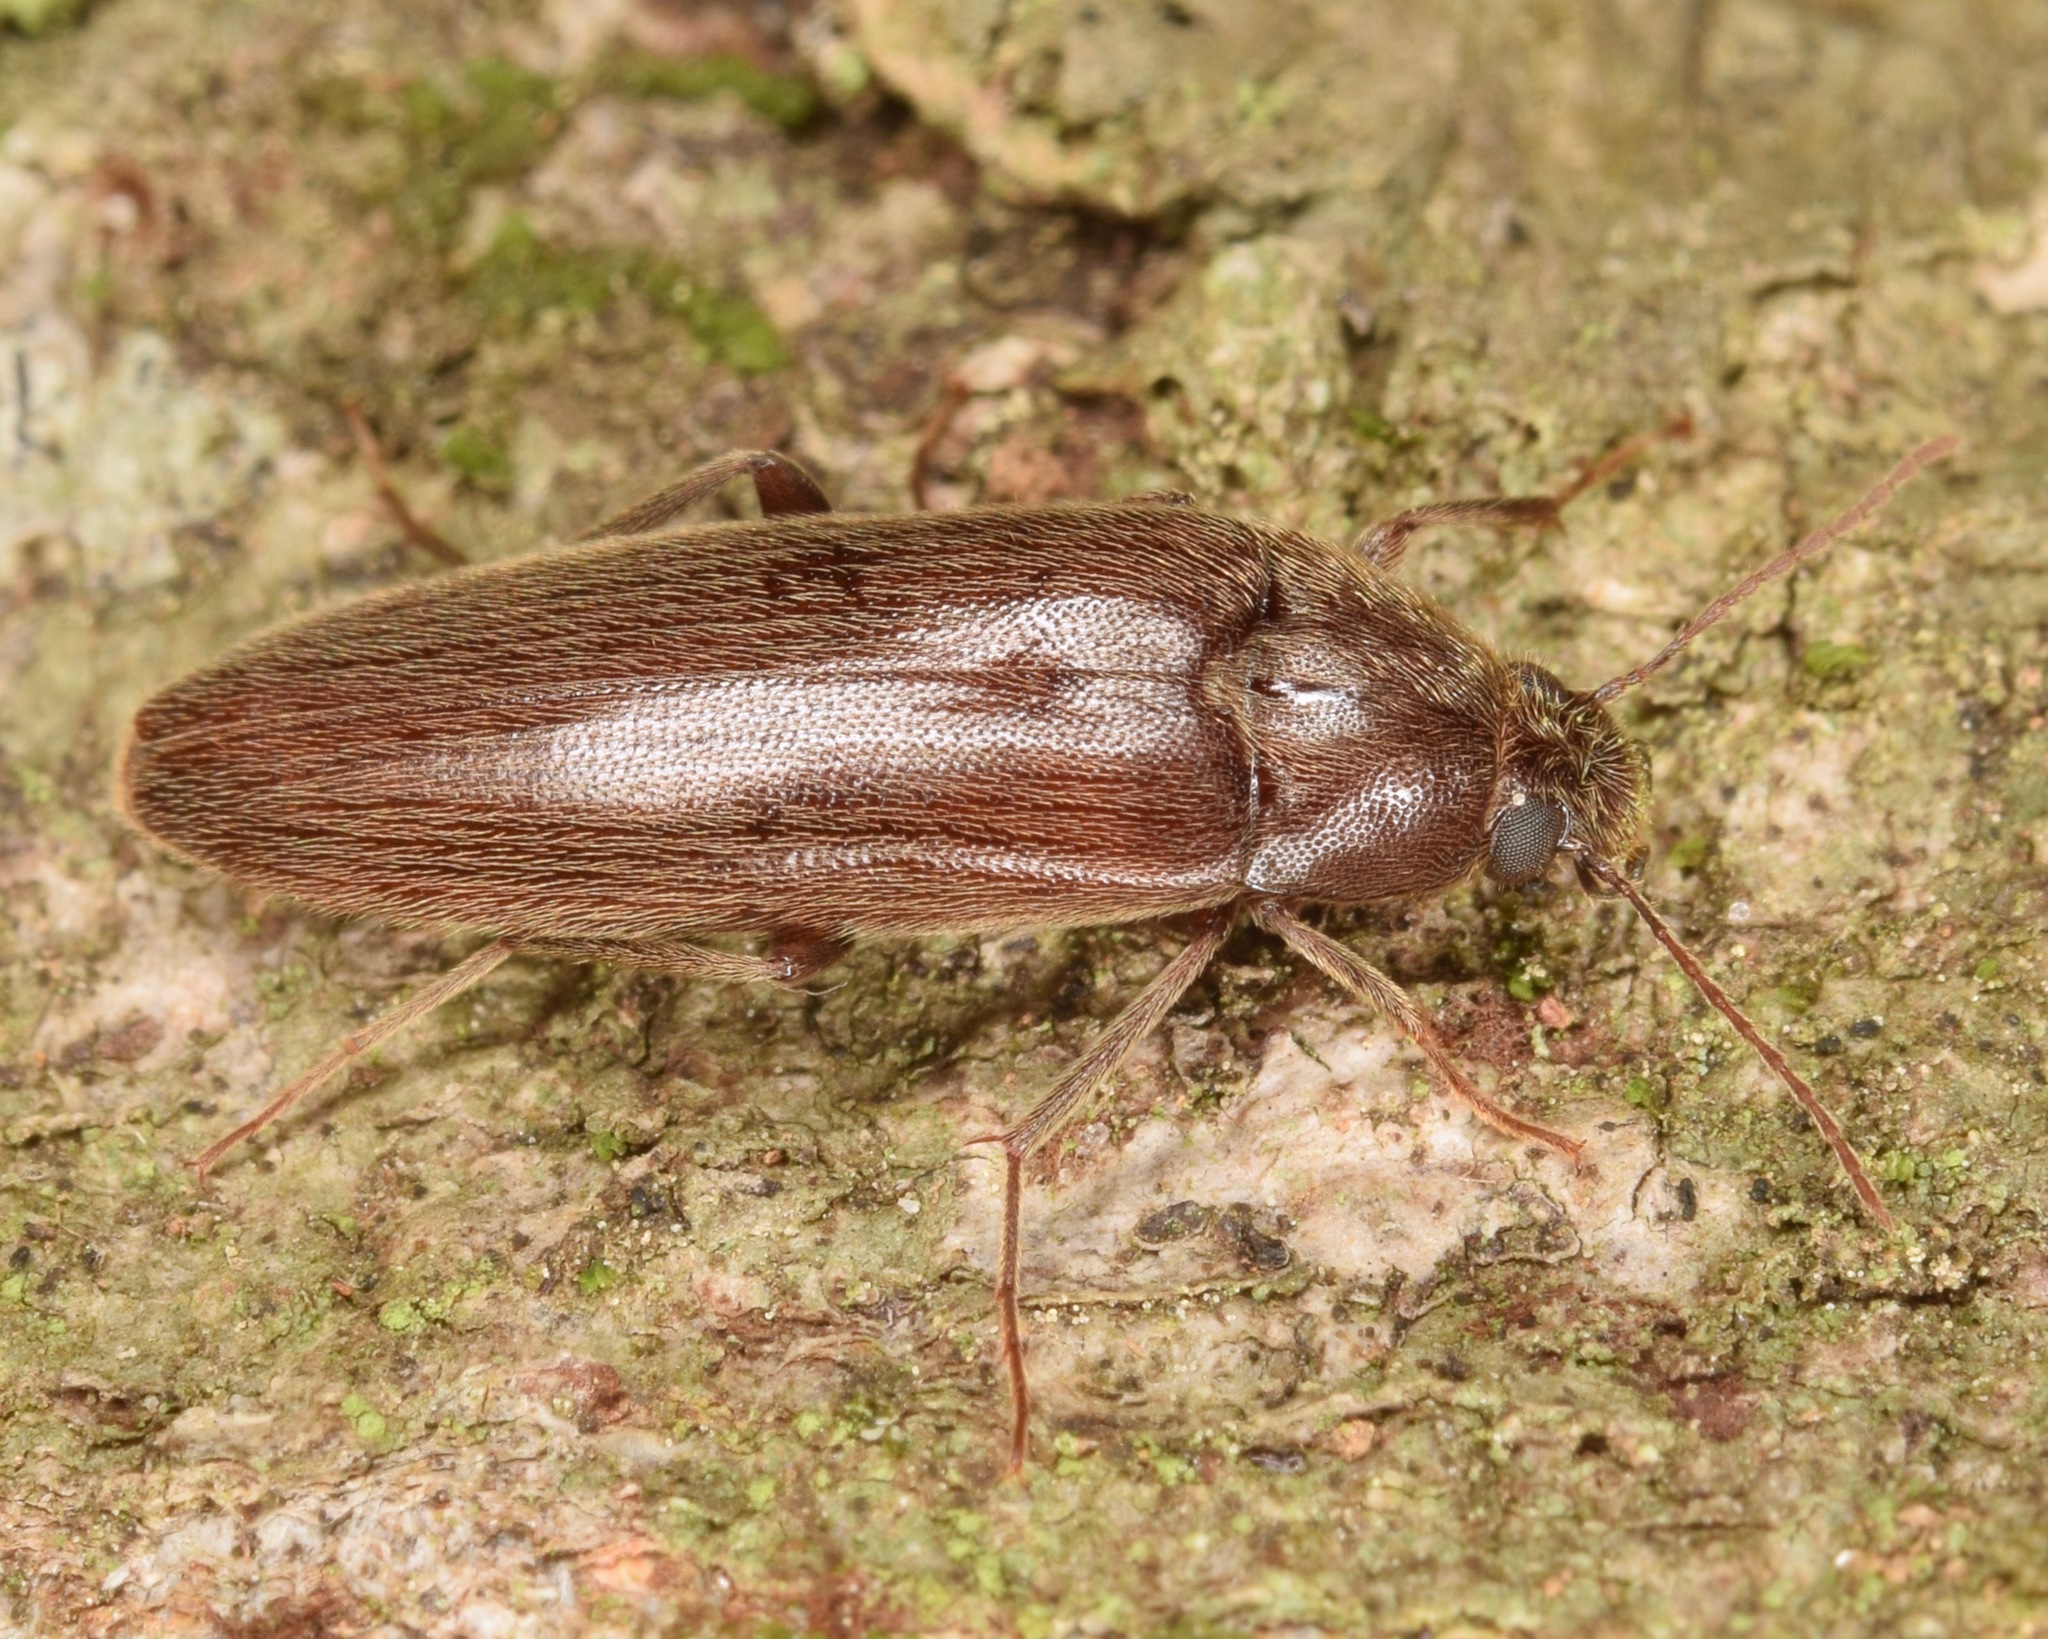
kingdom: Animalia
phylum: Arthropoda
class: Insecta
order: Coleoptera
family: Synchroidae
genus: Synchroa
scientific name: Synchroa punctata
